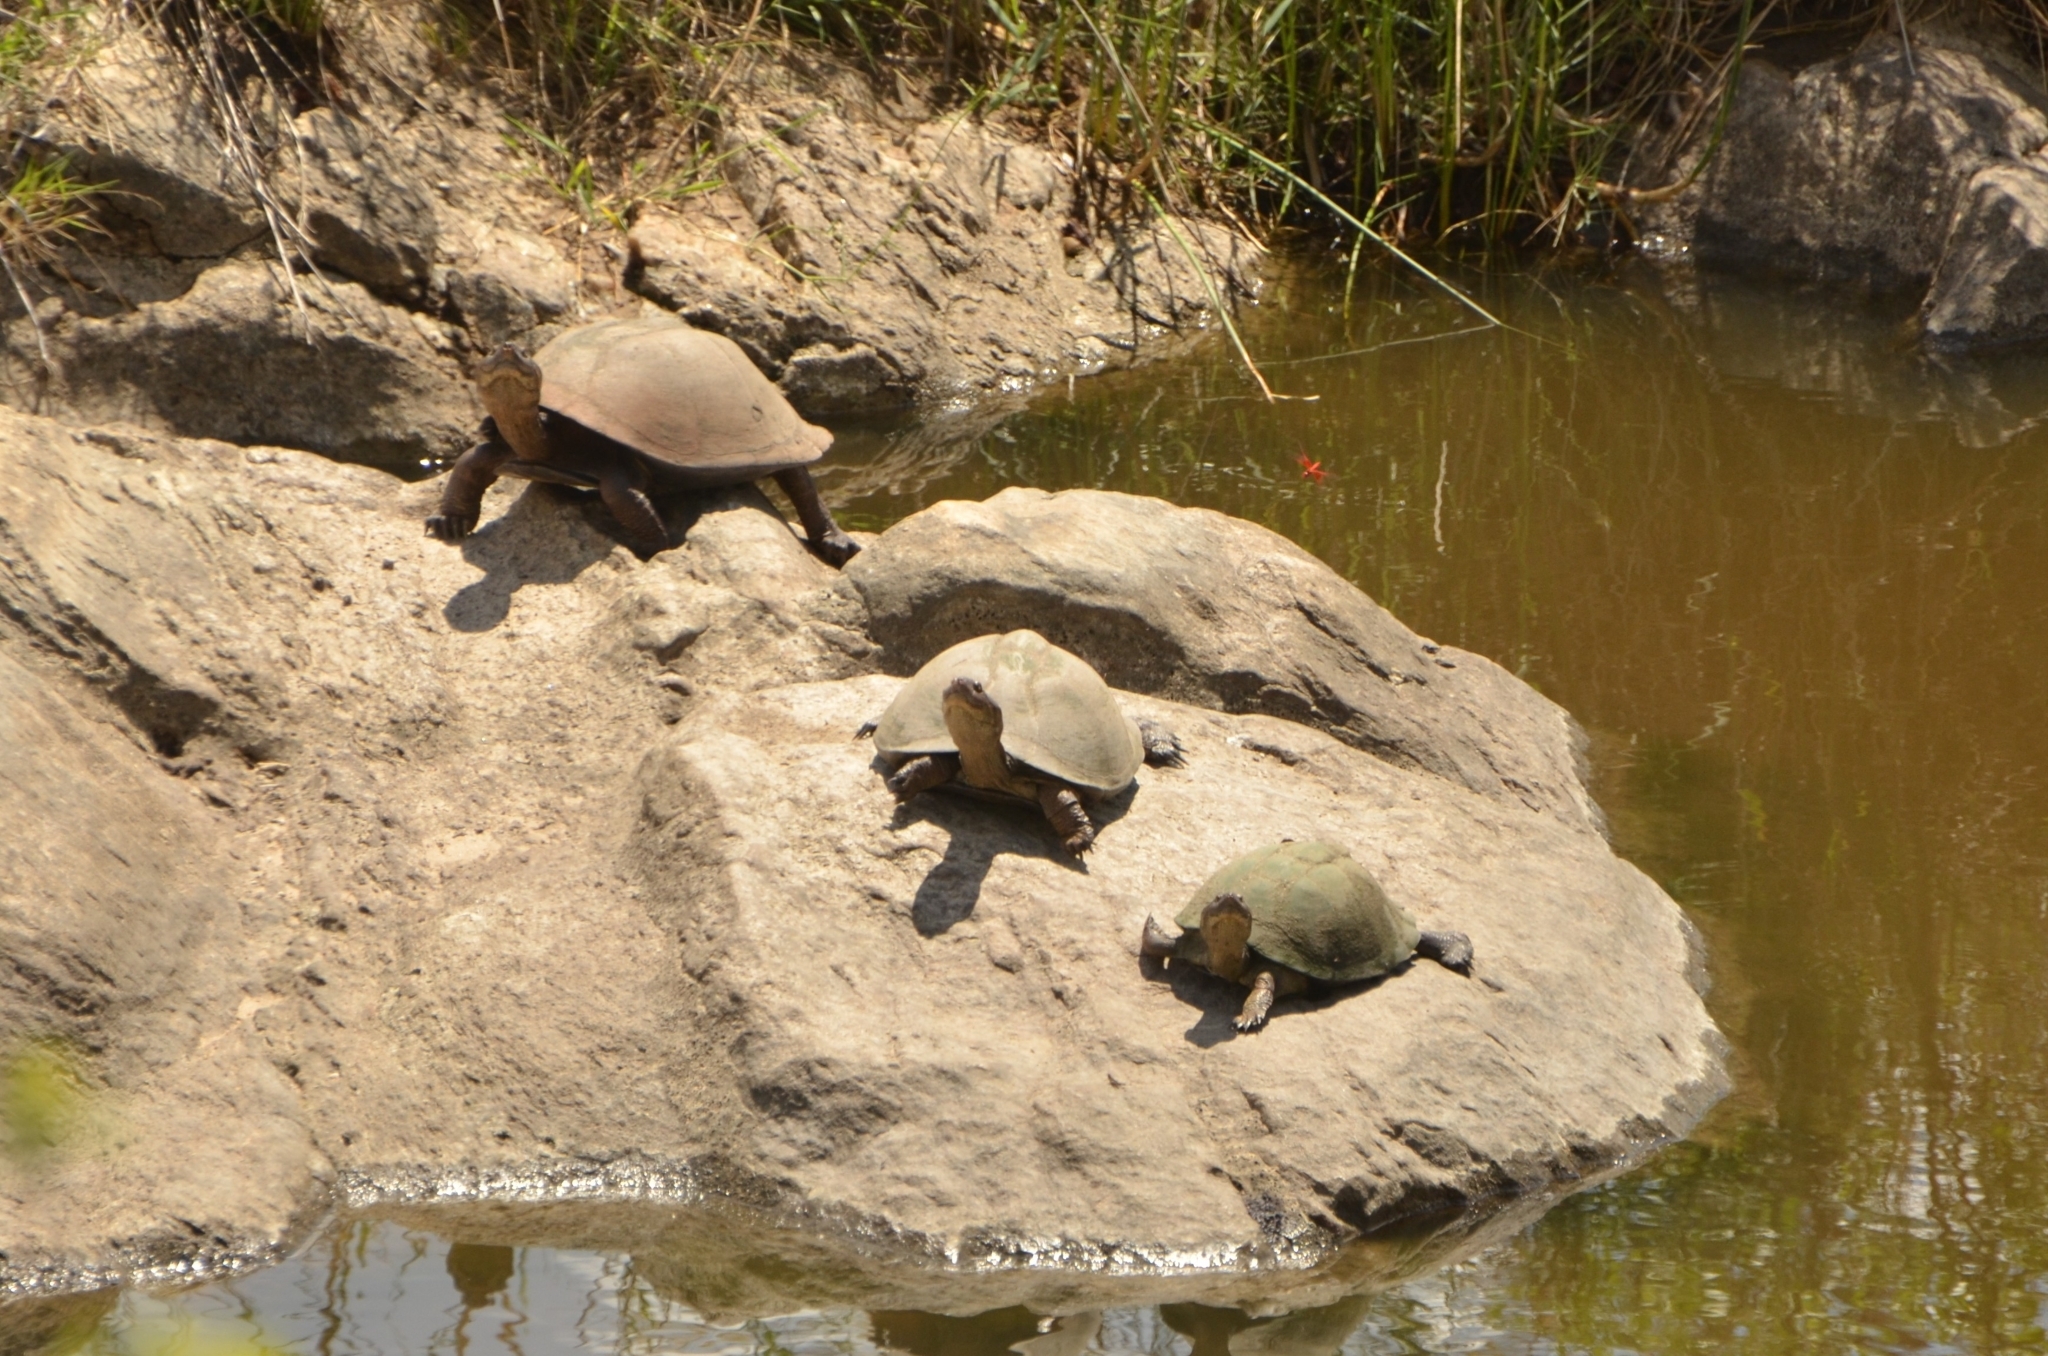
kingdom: Animalia
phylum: Chordata
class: Testudines
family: Pelomedusidae
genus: Pelusios
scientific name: Pelusios sinuatus
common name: Serrated hinged terrapin
